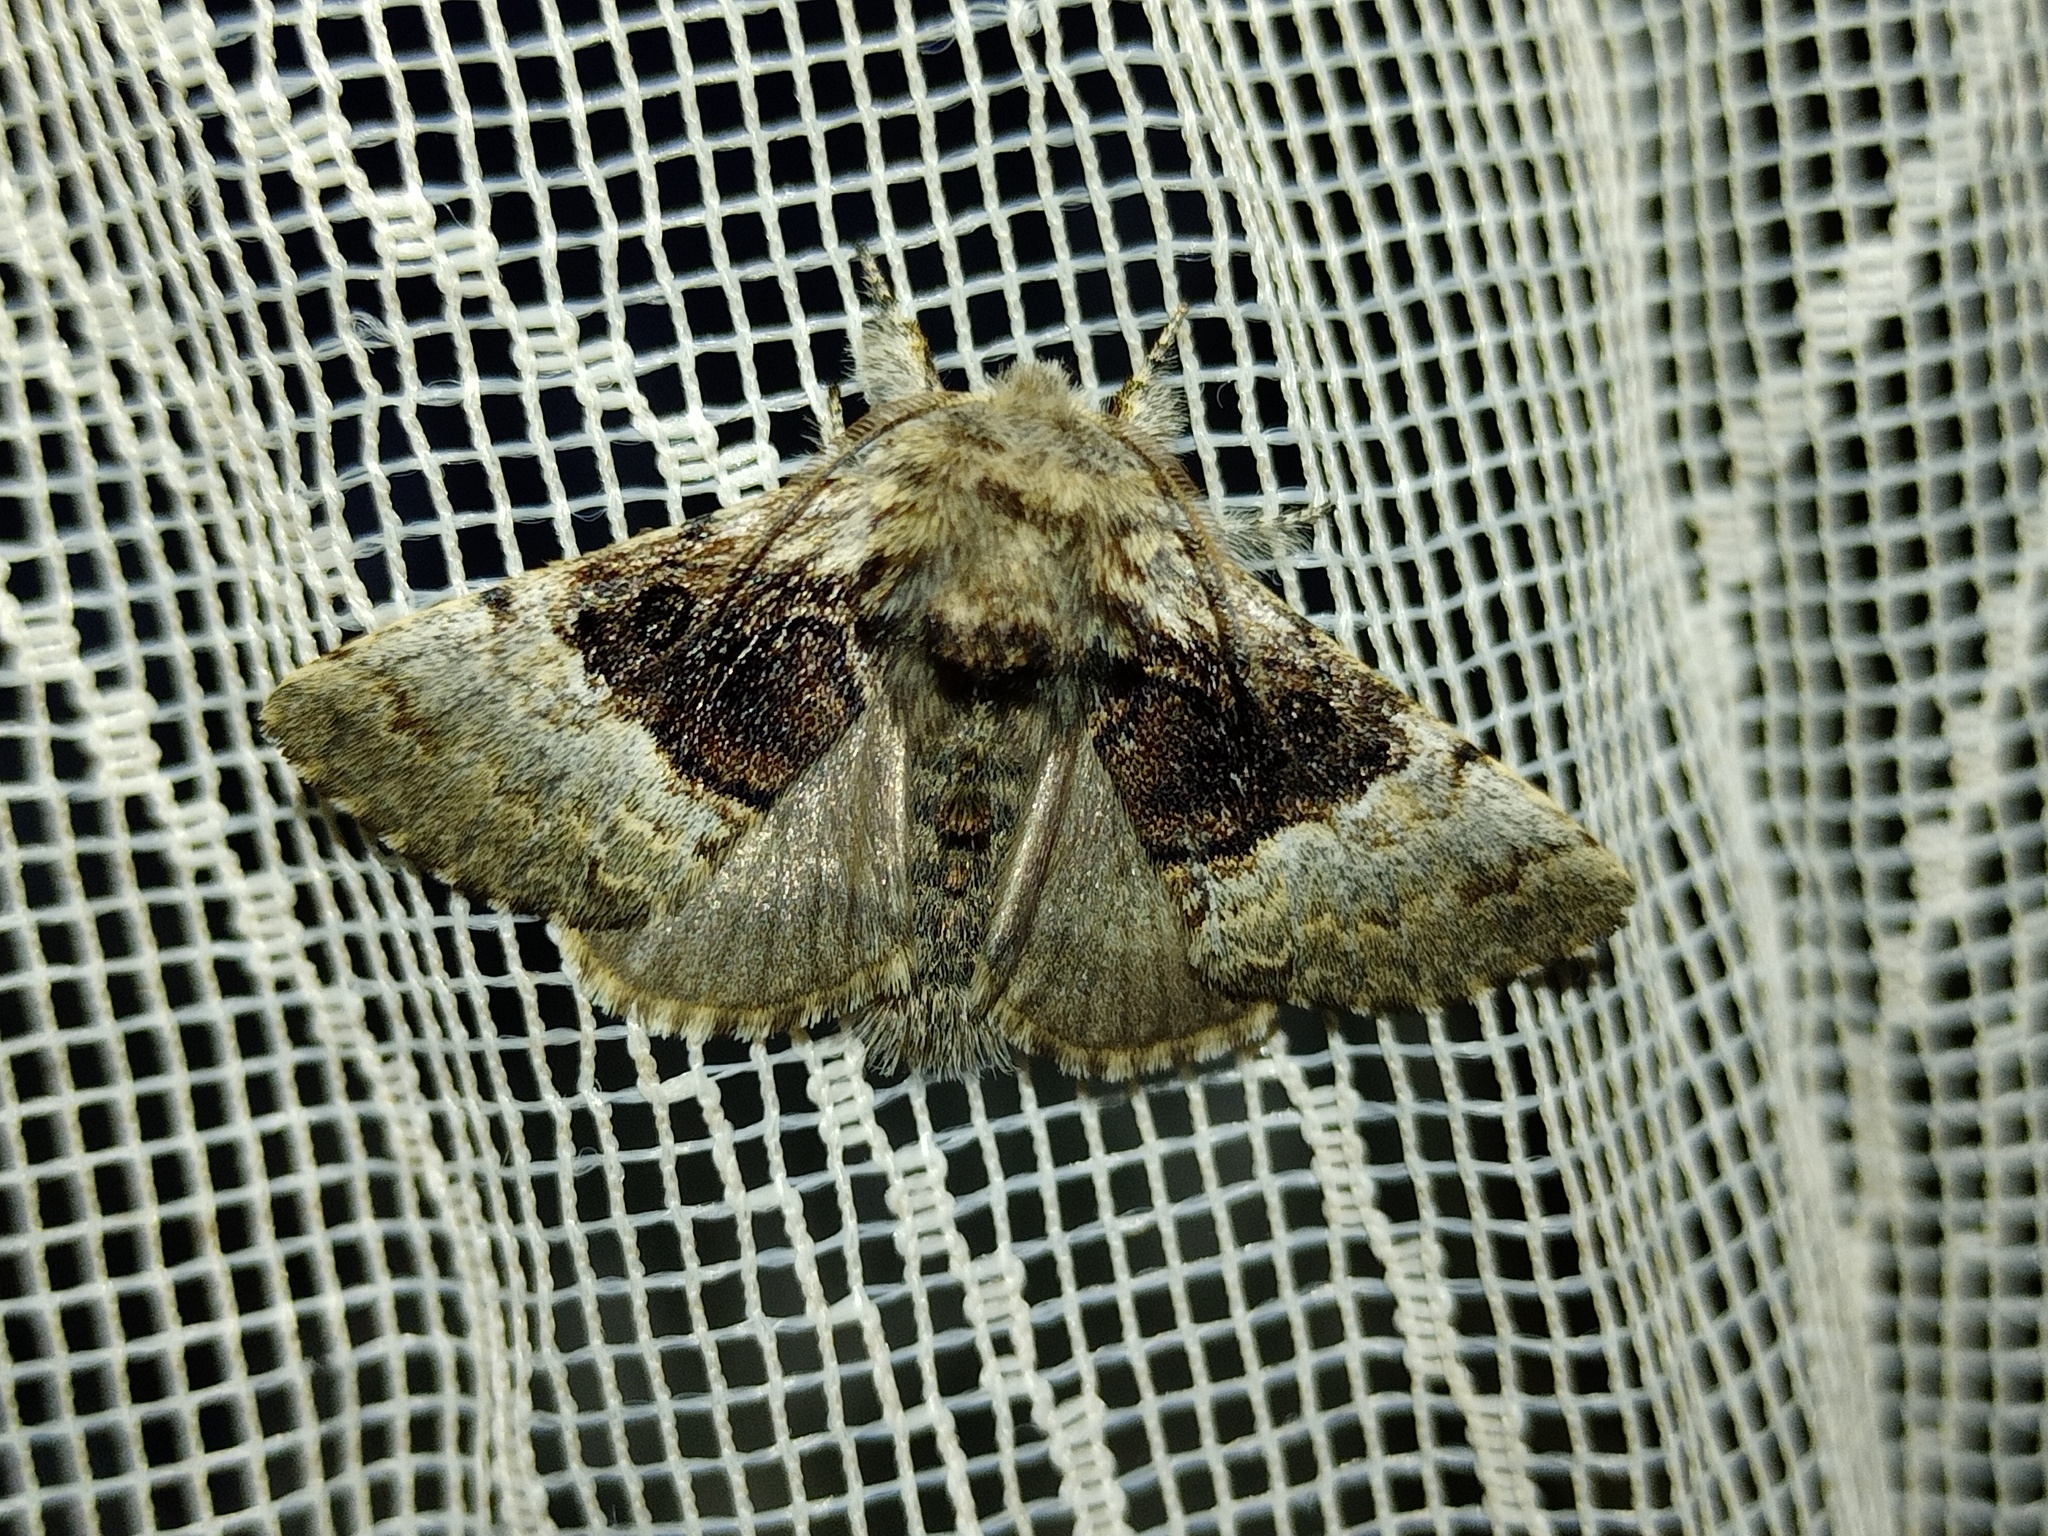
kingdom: Animalia
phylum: Arthropoda
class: Insecta
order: Lepidoptera
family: Noctuidae
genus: Colocasia
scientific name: Colocasia coryli
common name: Nut-tree tussock
